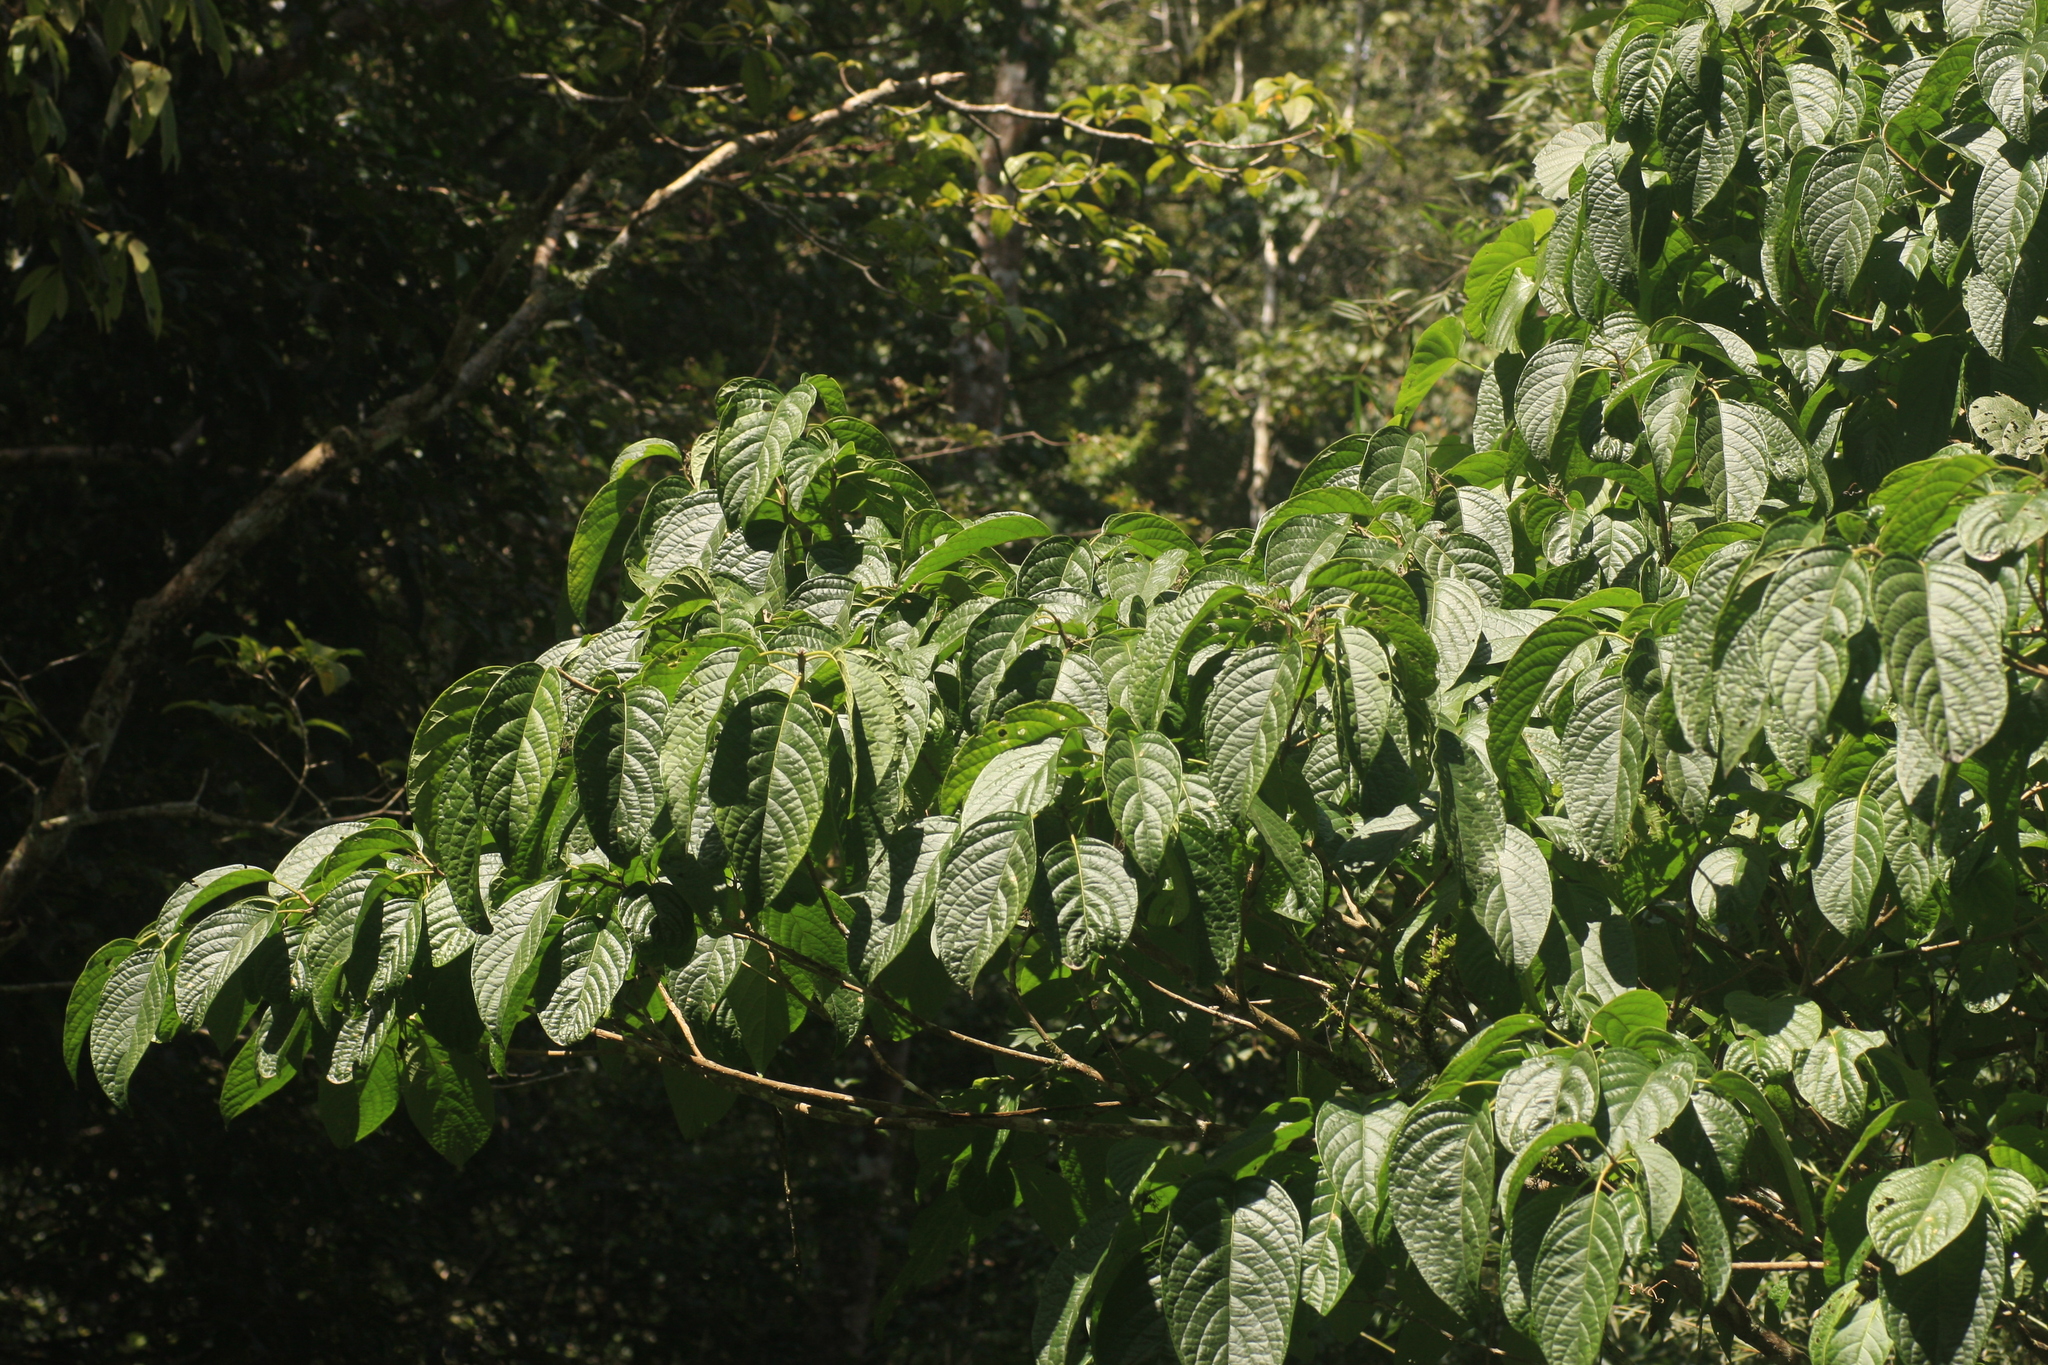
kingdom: Plantae
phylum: Tracheophyta
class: Magnoliopsida
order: Icacinales
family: Icacinaceae
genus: Nothapodytes
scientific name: Nothapodytes nimmoniana
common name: Nothapodytes
